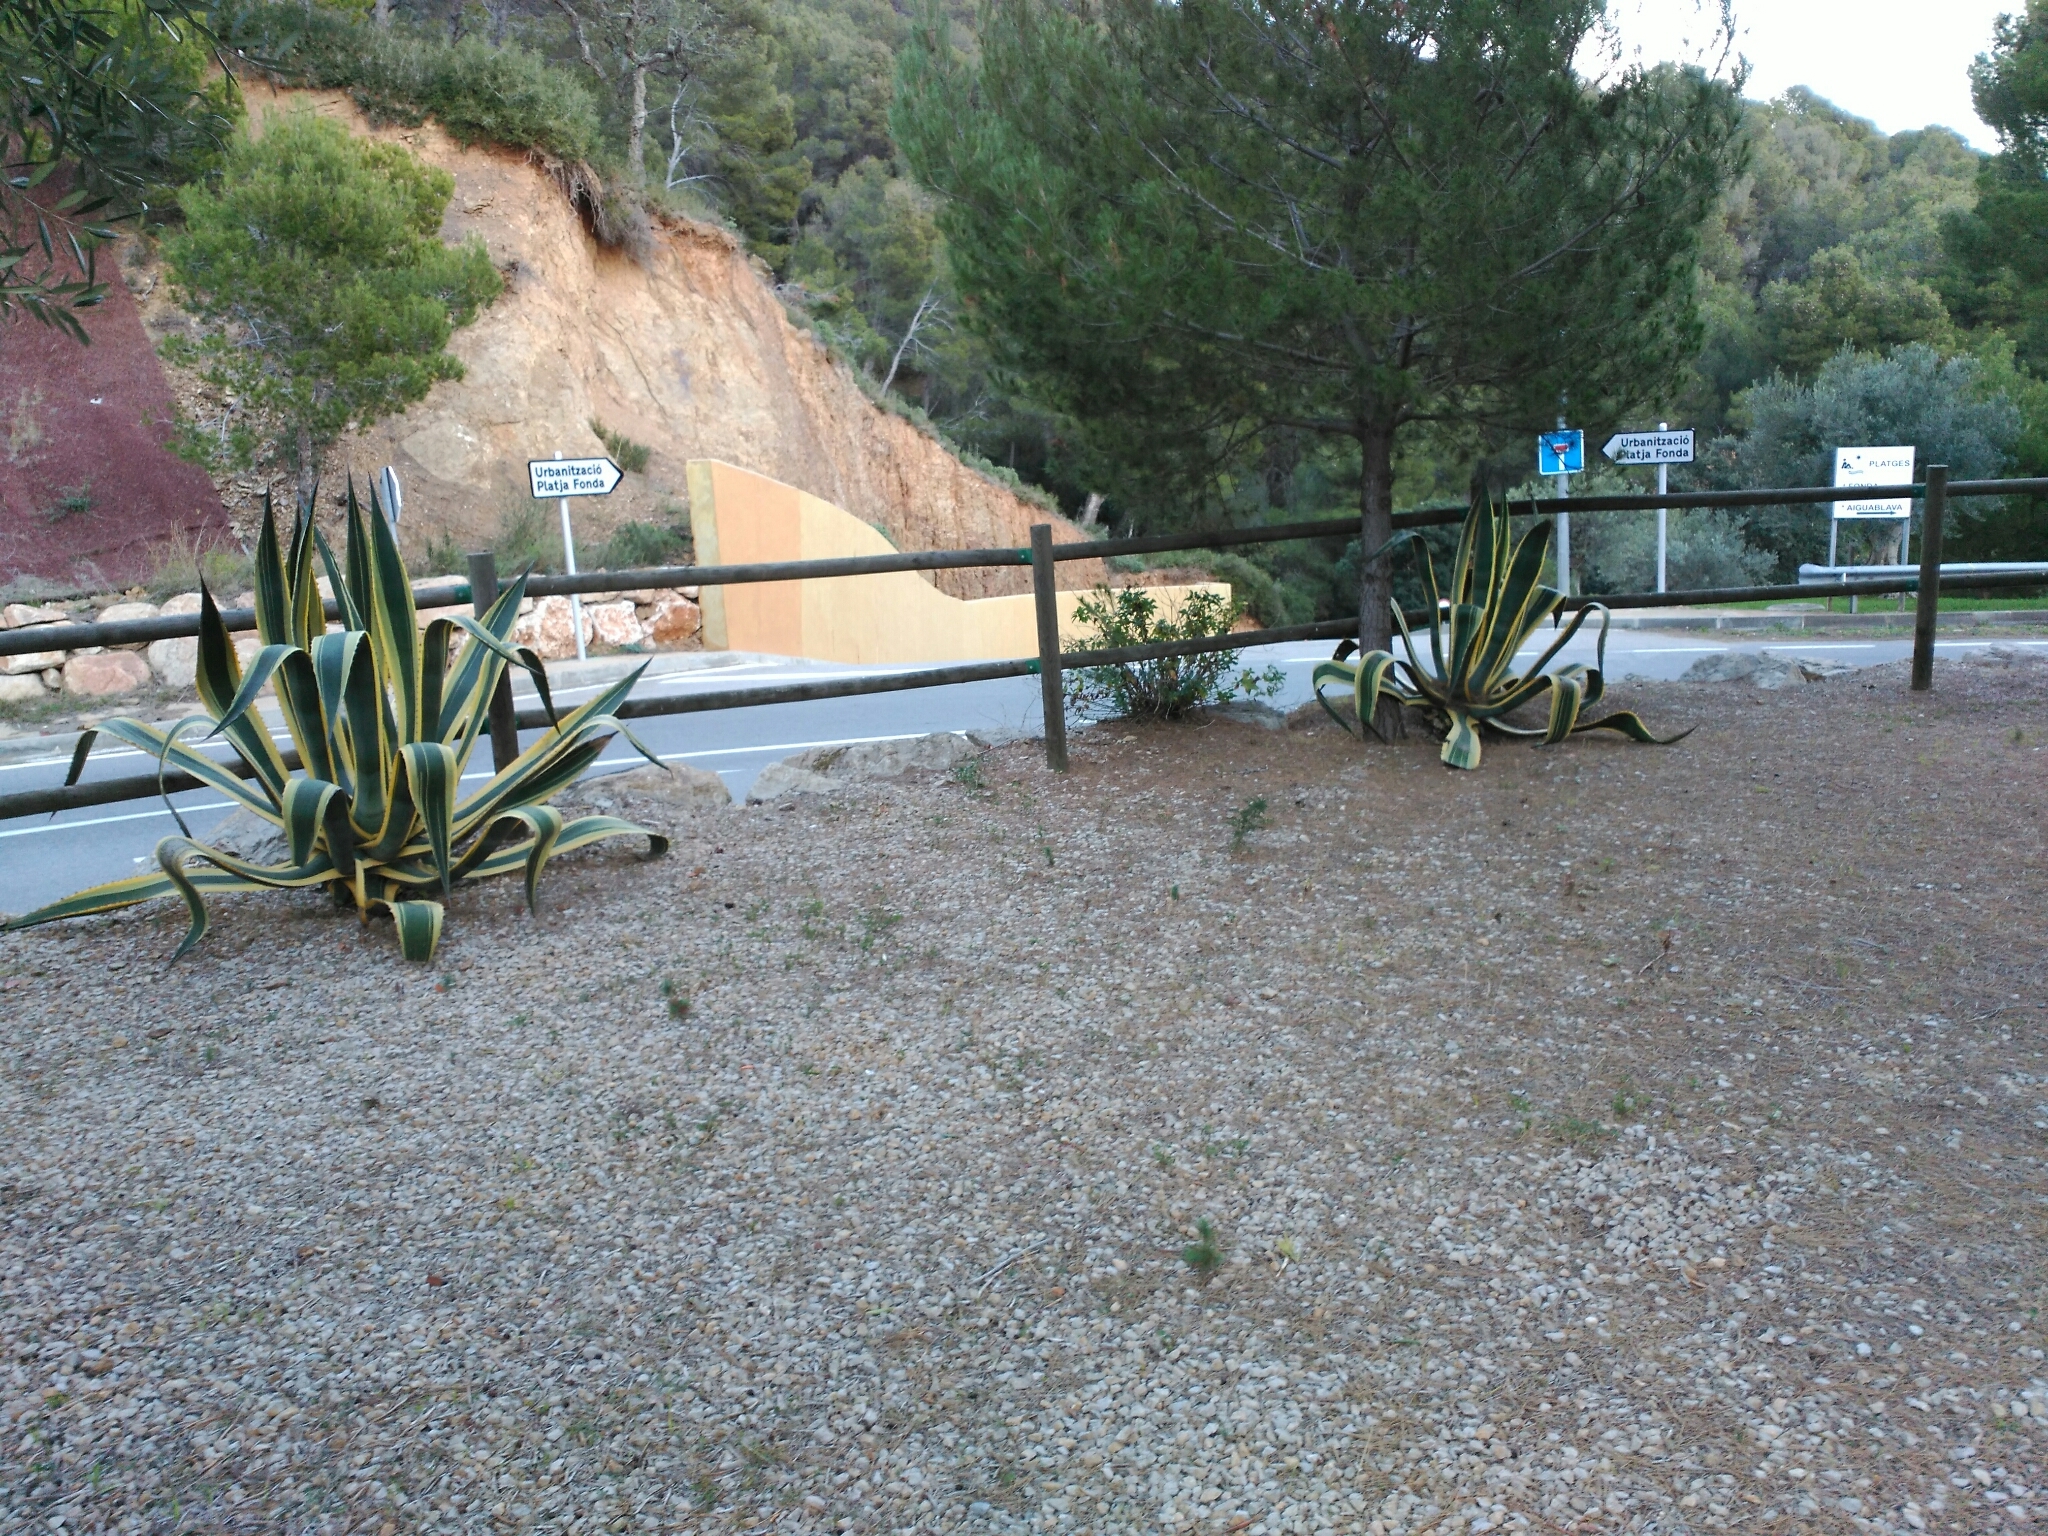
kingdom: Plantae
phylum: Tracheophyta
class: Liliopsida
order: Asparagales
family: Asparagaceae
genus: Agave
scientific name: Agave americana
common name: Centuryplant
